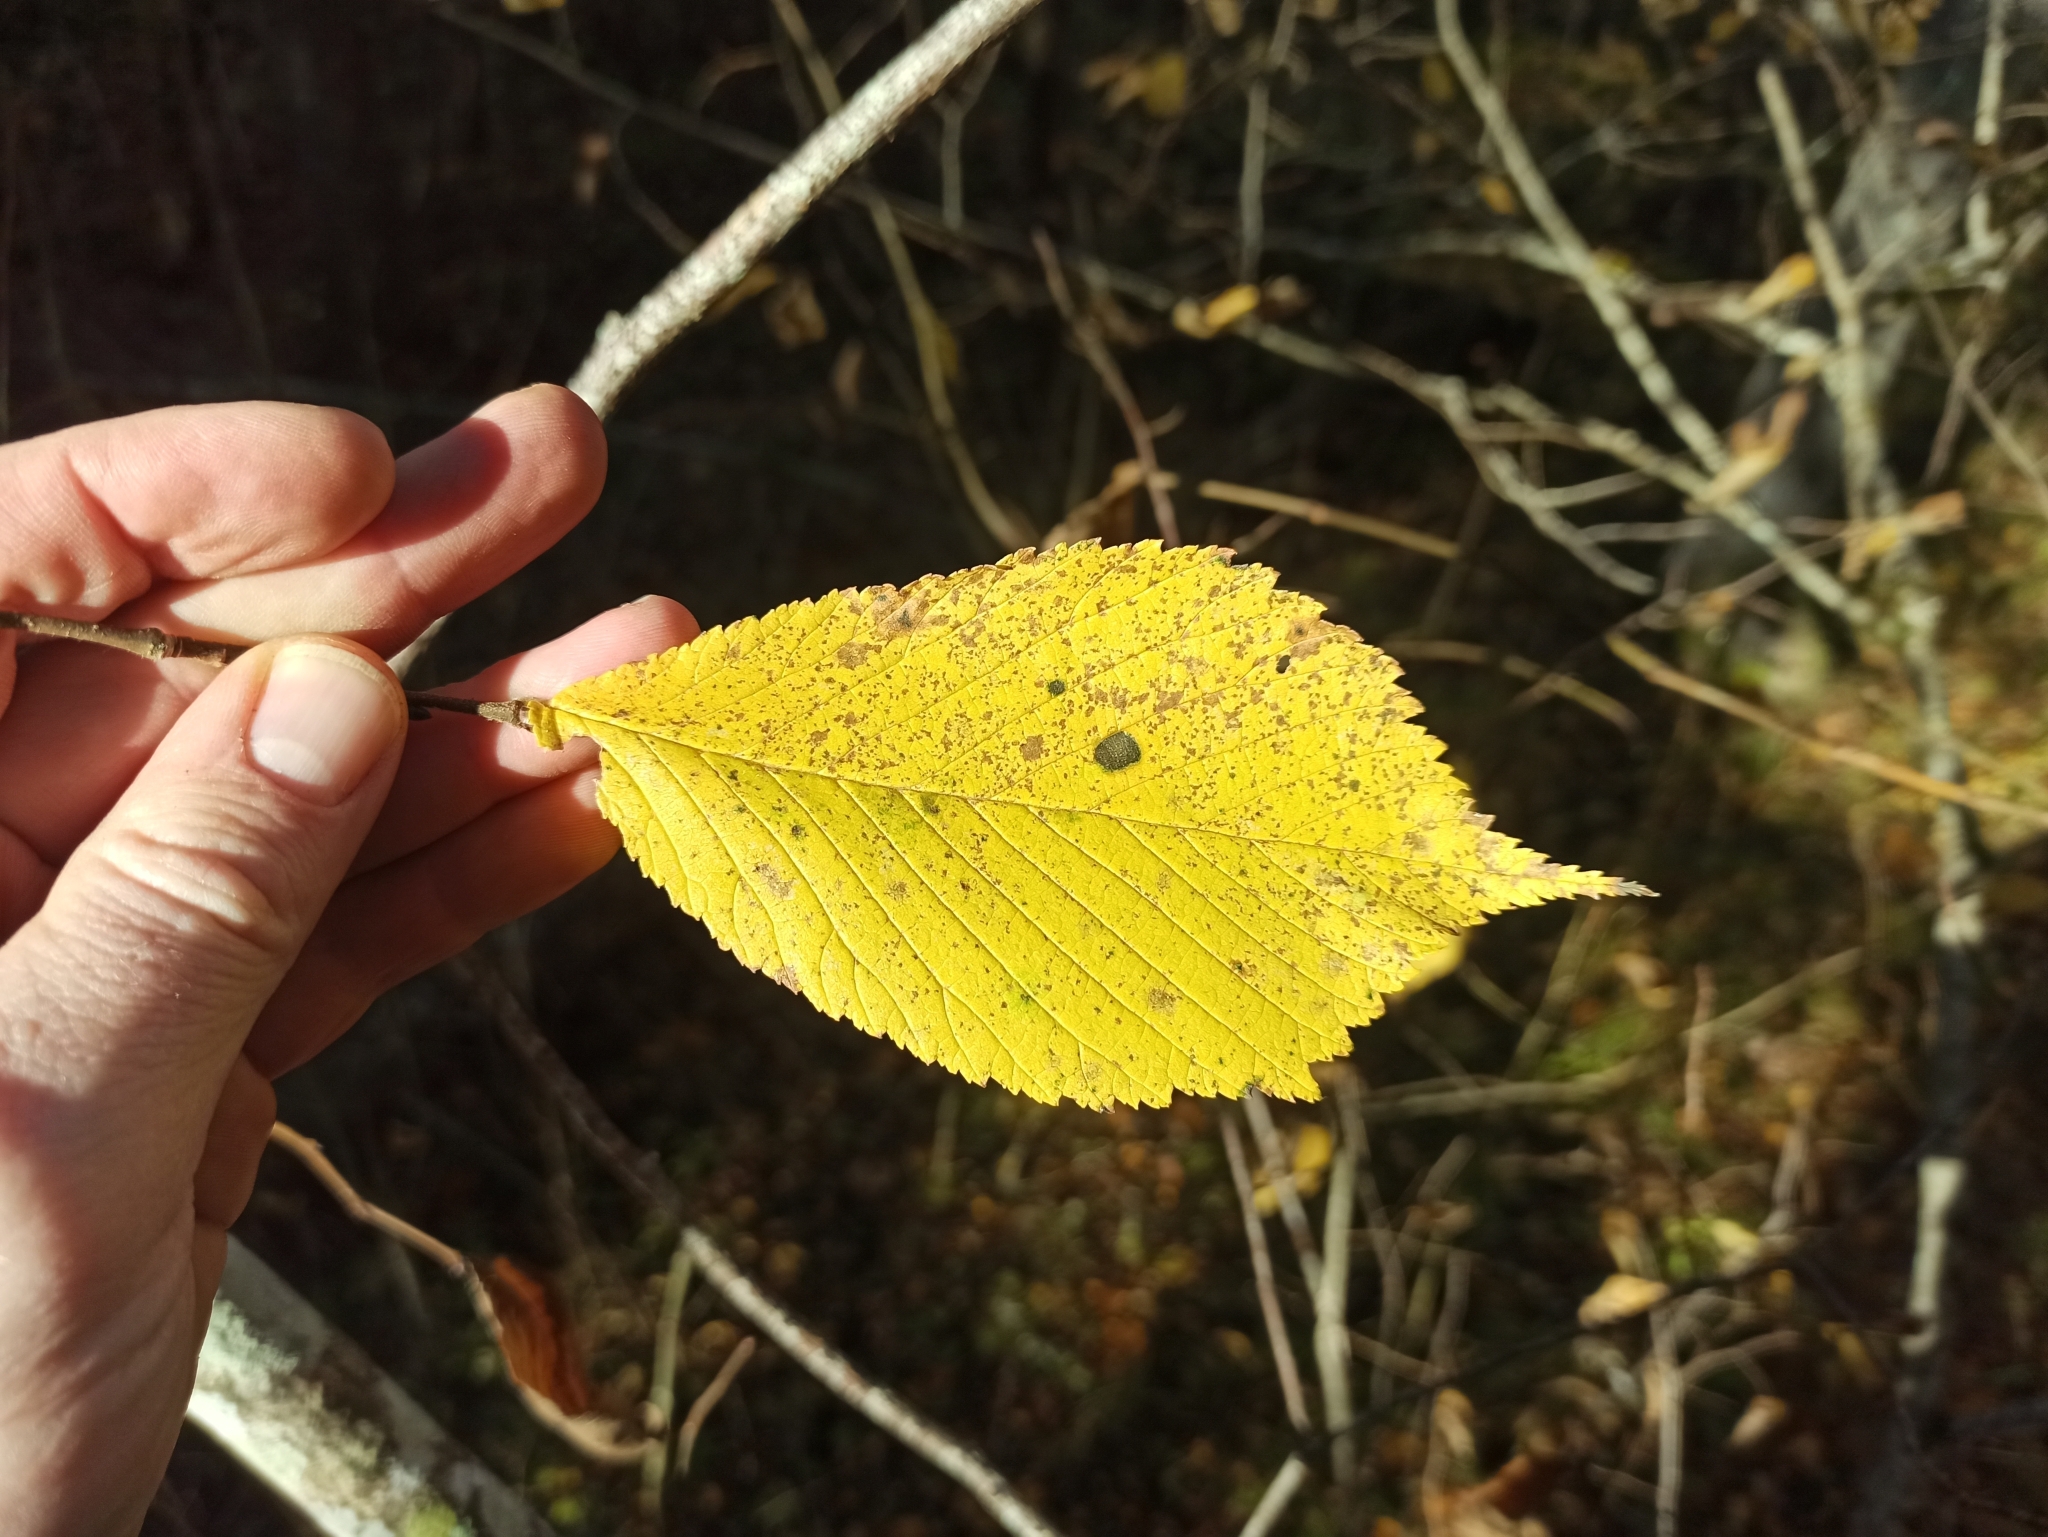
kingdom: Plantae
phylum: Tracheophyta
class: Magnoliopsida
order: Rosales
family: Ulmaceae
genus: Ulmus
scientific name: Ulmus glabra
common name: Wych elm
